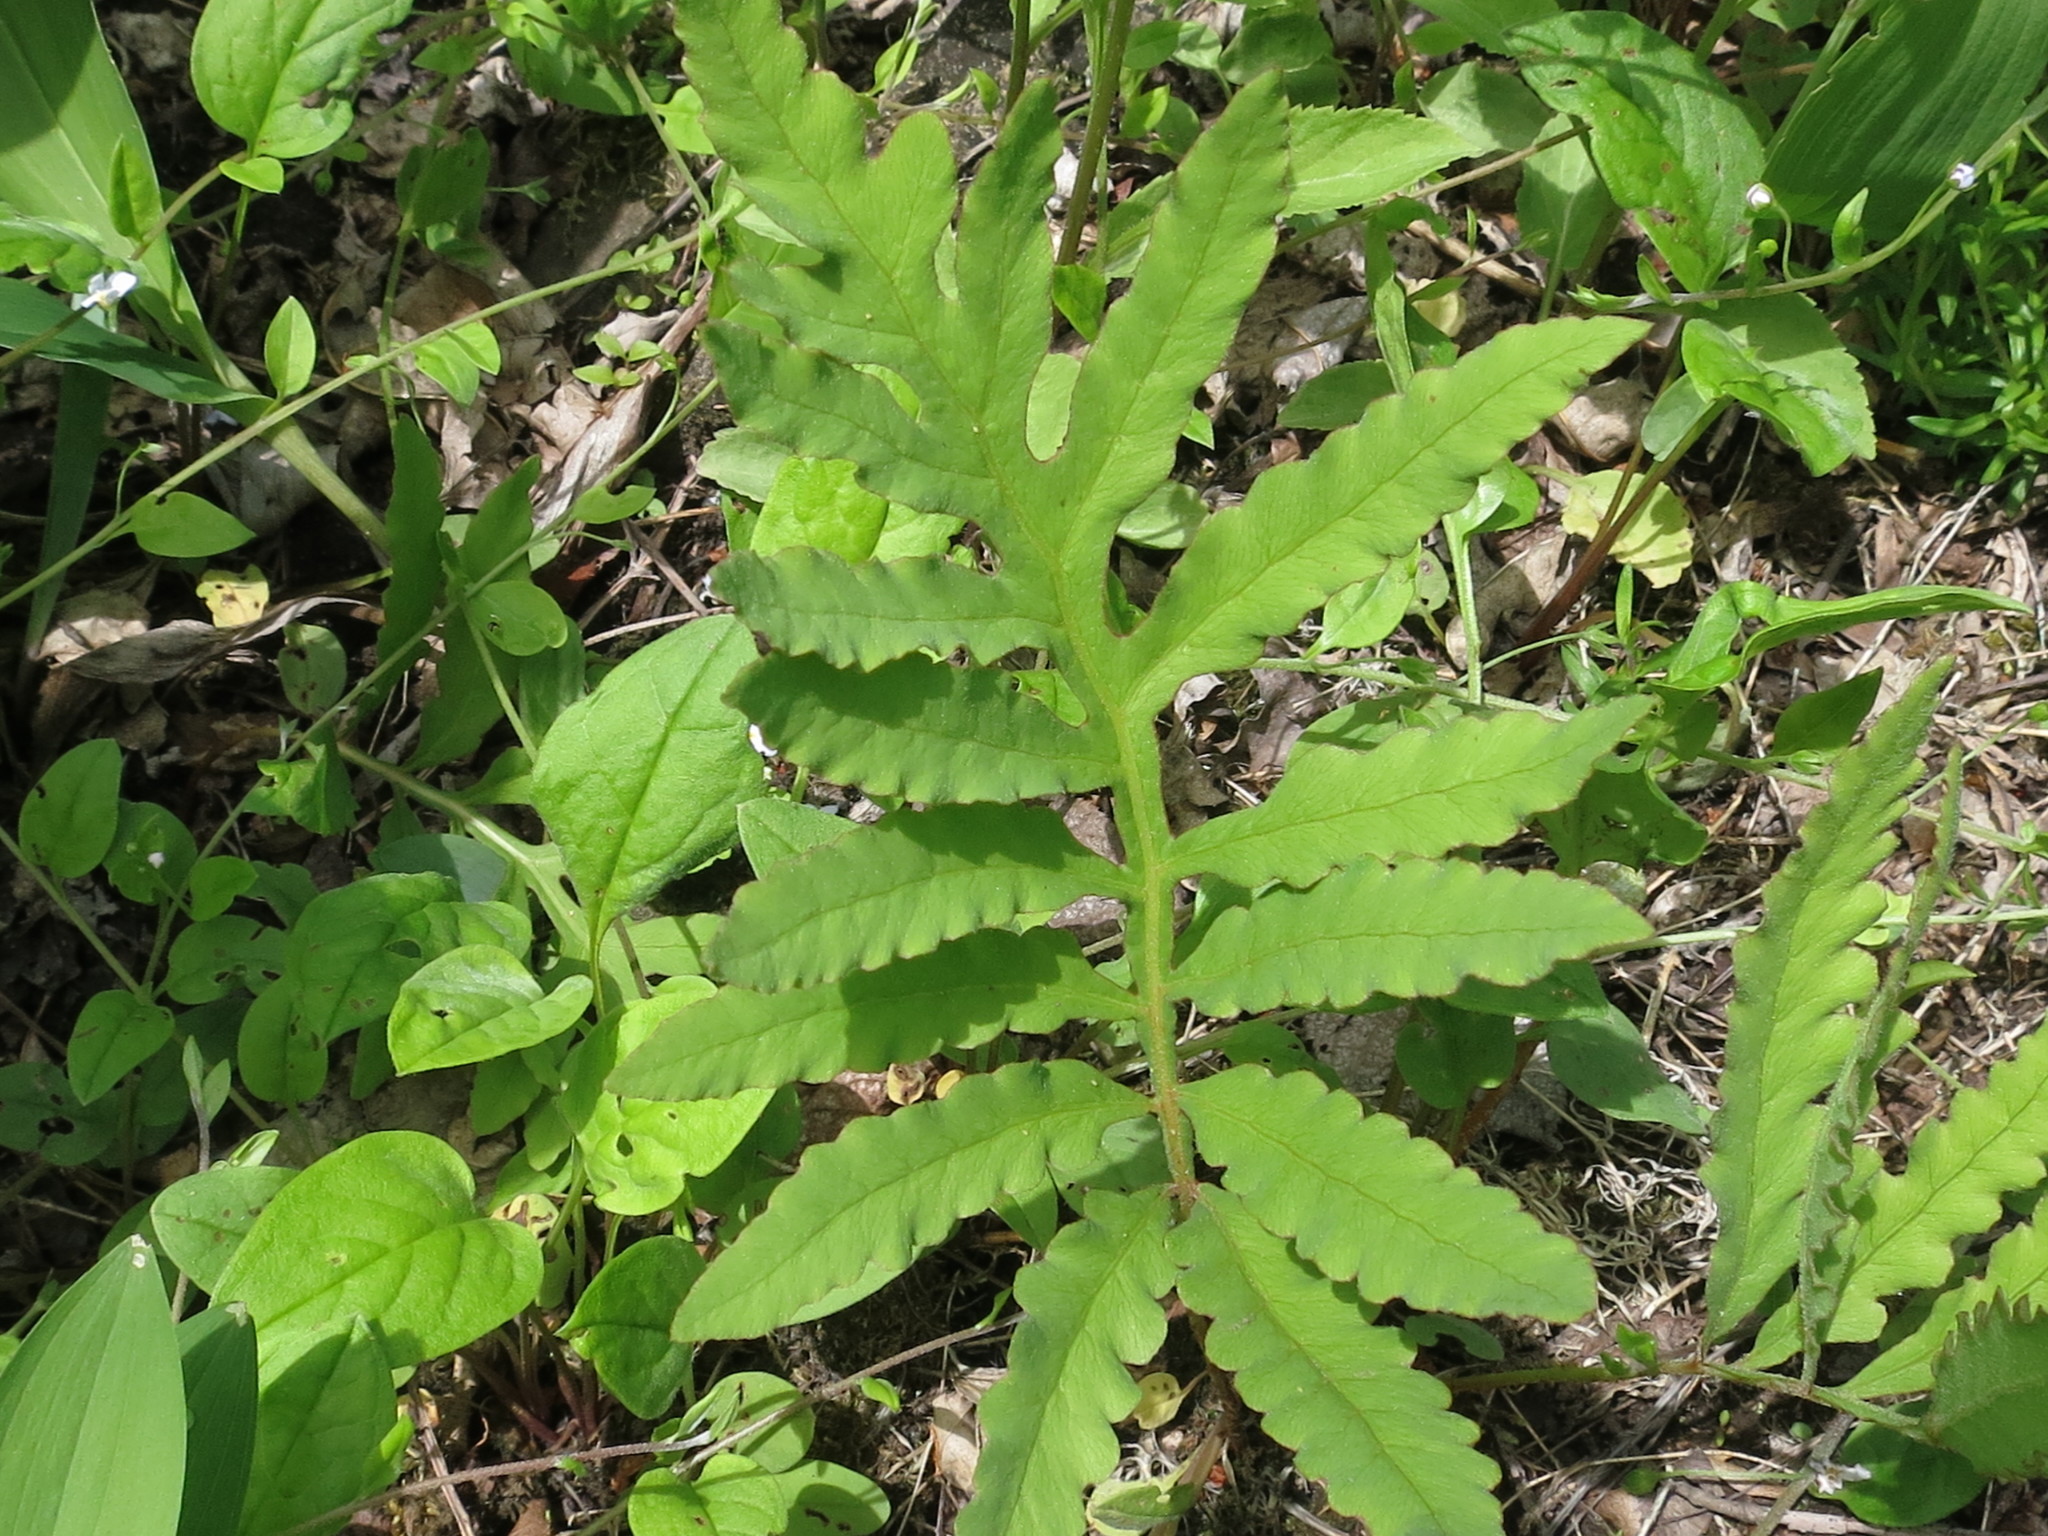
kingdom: Plantae
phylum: Tracheophyta
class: Polypodiopsida
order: Polypodiales
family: Onocleaceae
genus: Onoclea
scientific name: Onoclea sensibilis
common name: Sensitive fern
